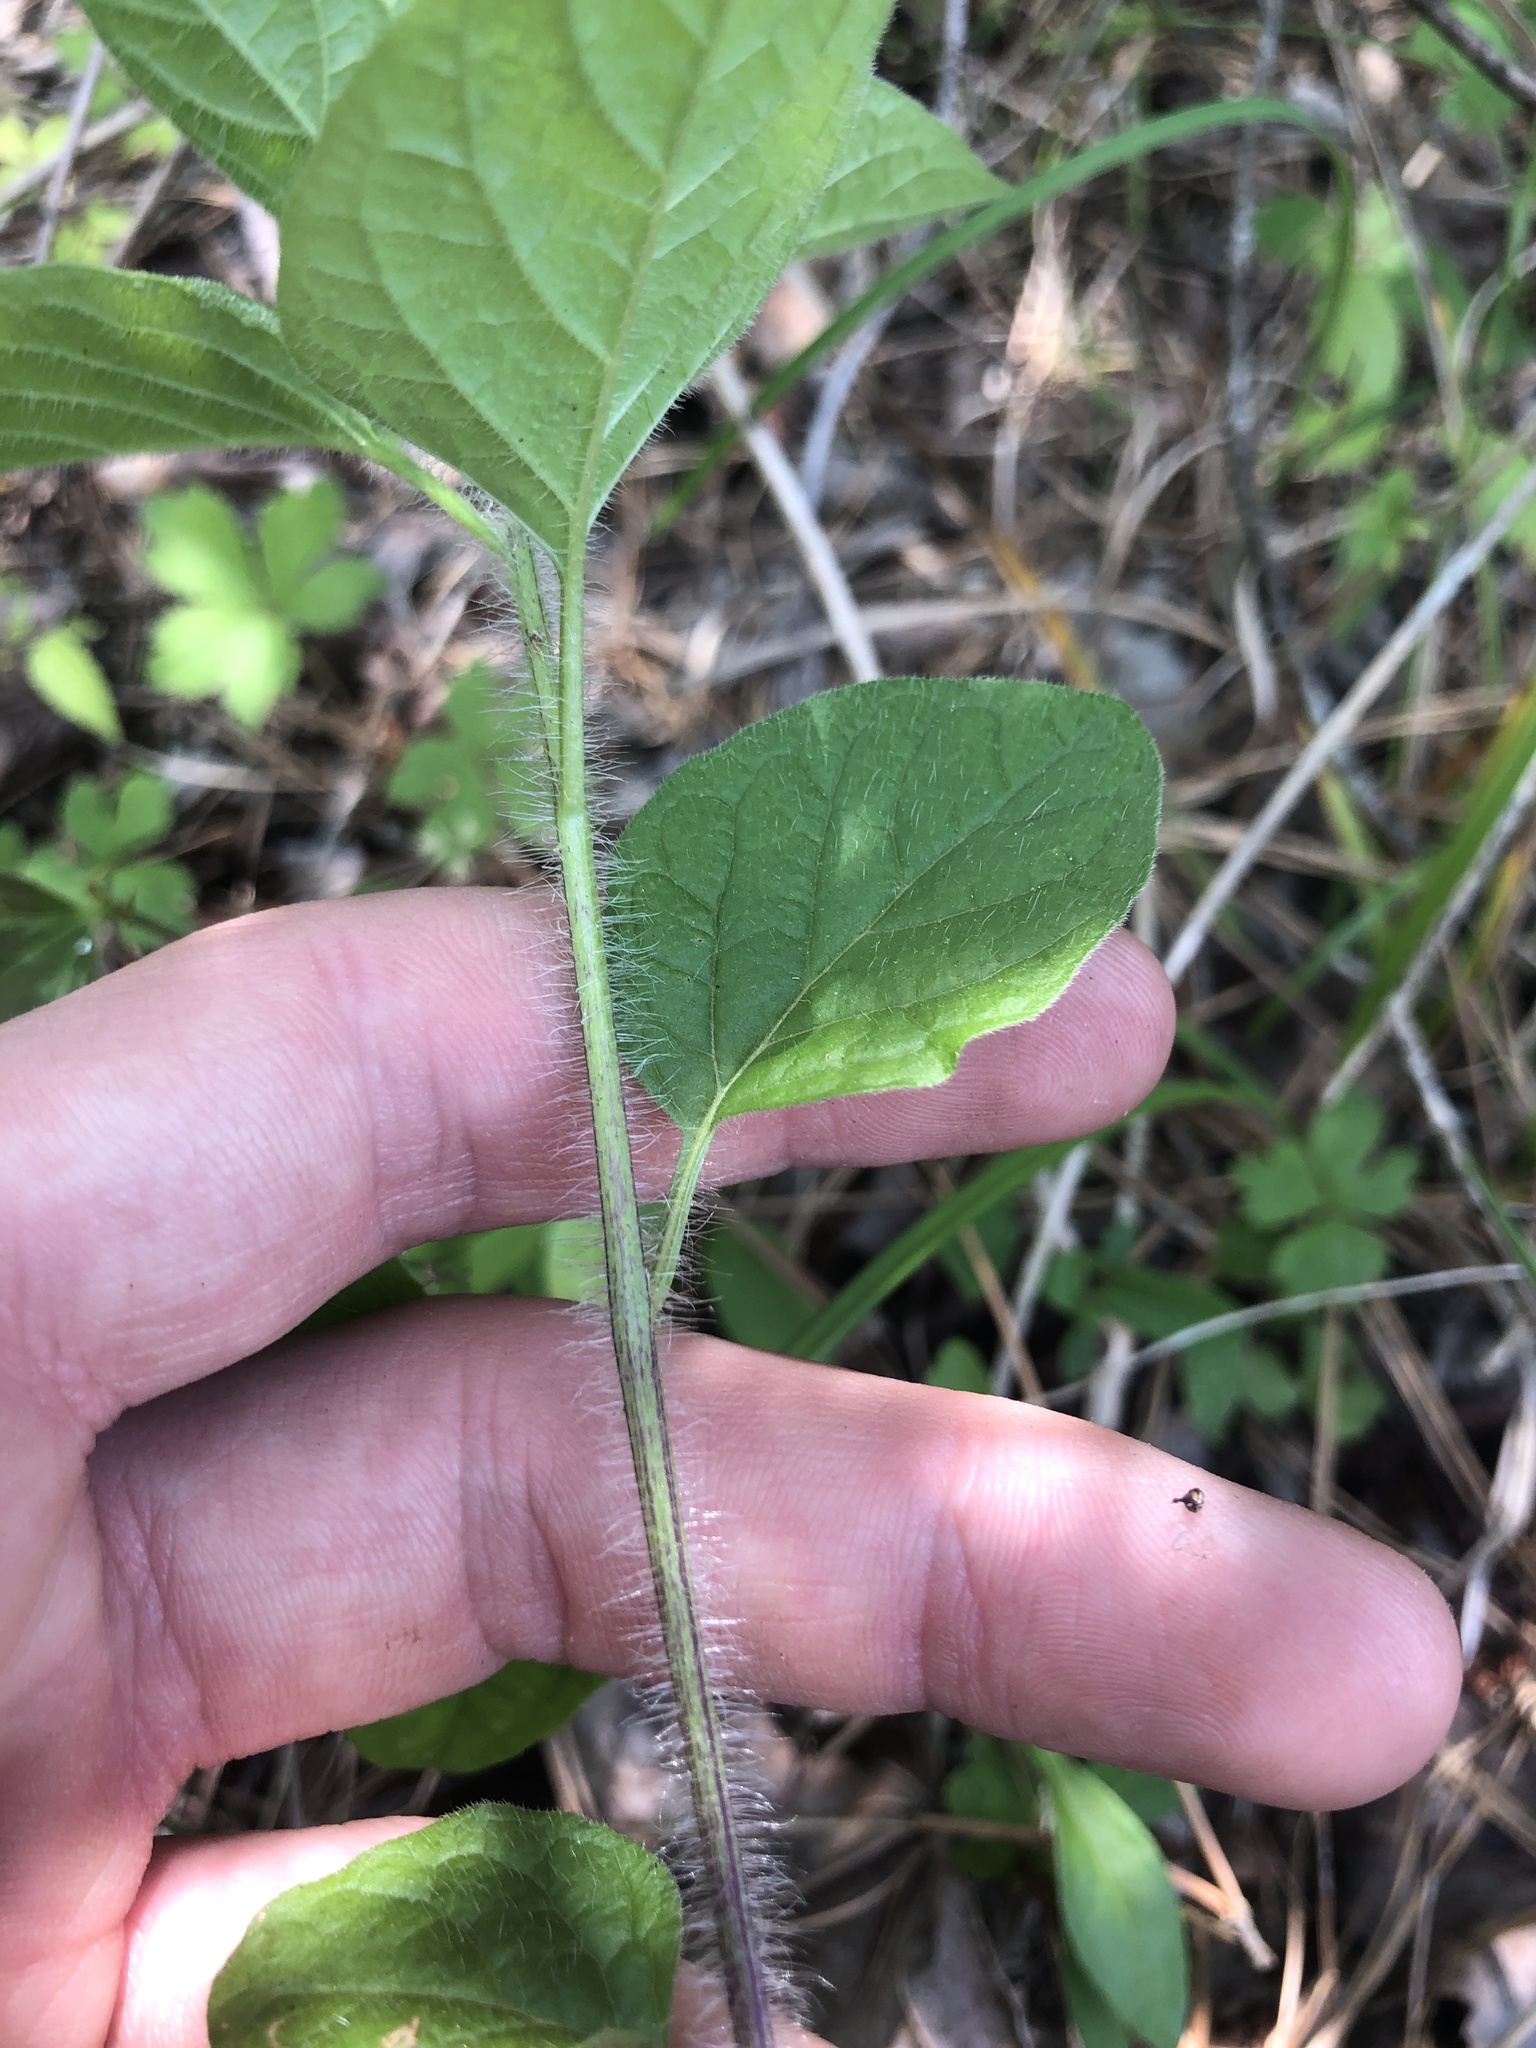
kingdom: Plantae
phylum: Tracheophyta
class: Magnoliopsida
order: Solanales
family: Solanaceae
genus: Physalis
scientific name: Physalis heterophylla
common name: Clammy ground-cherry
